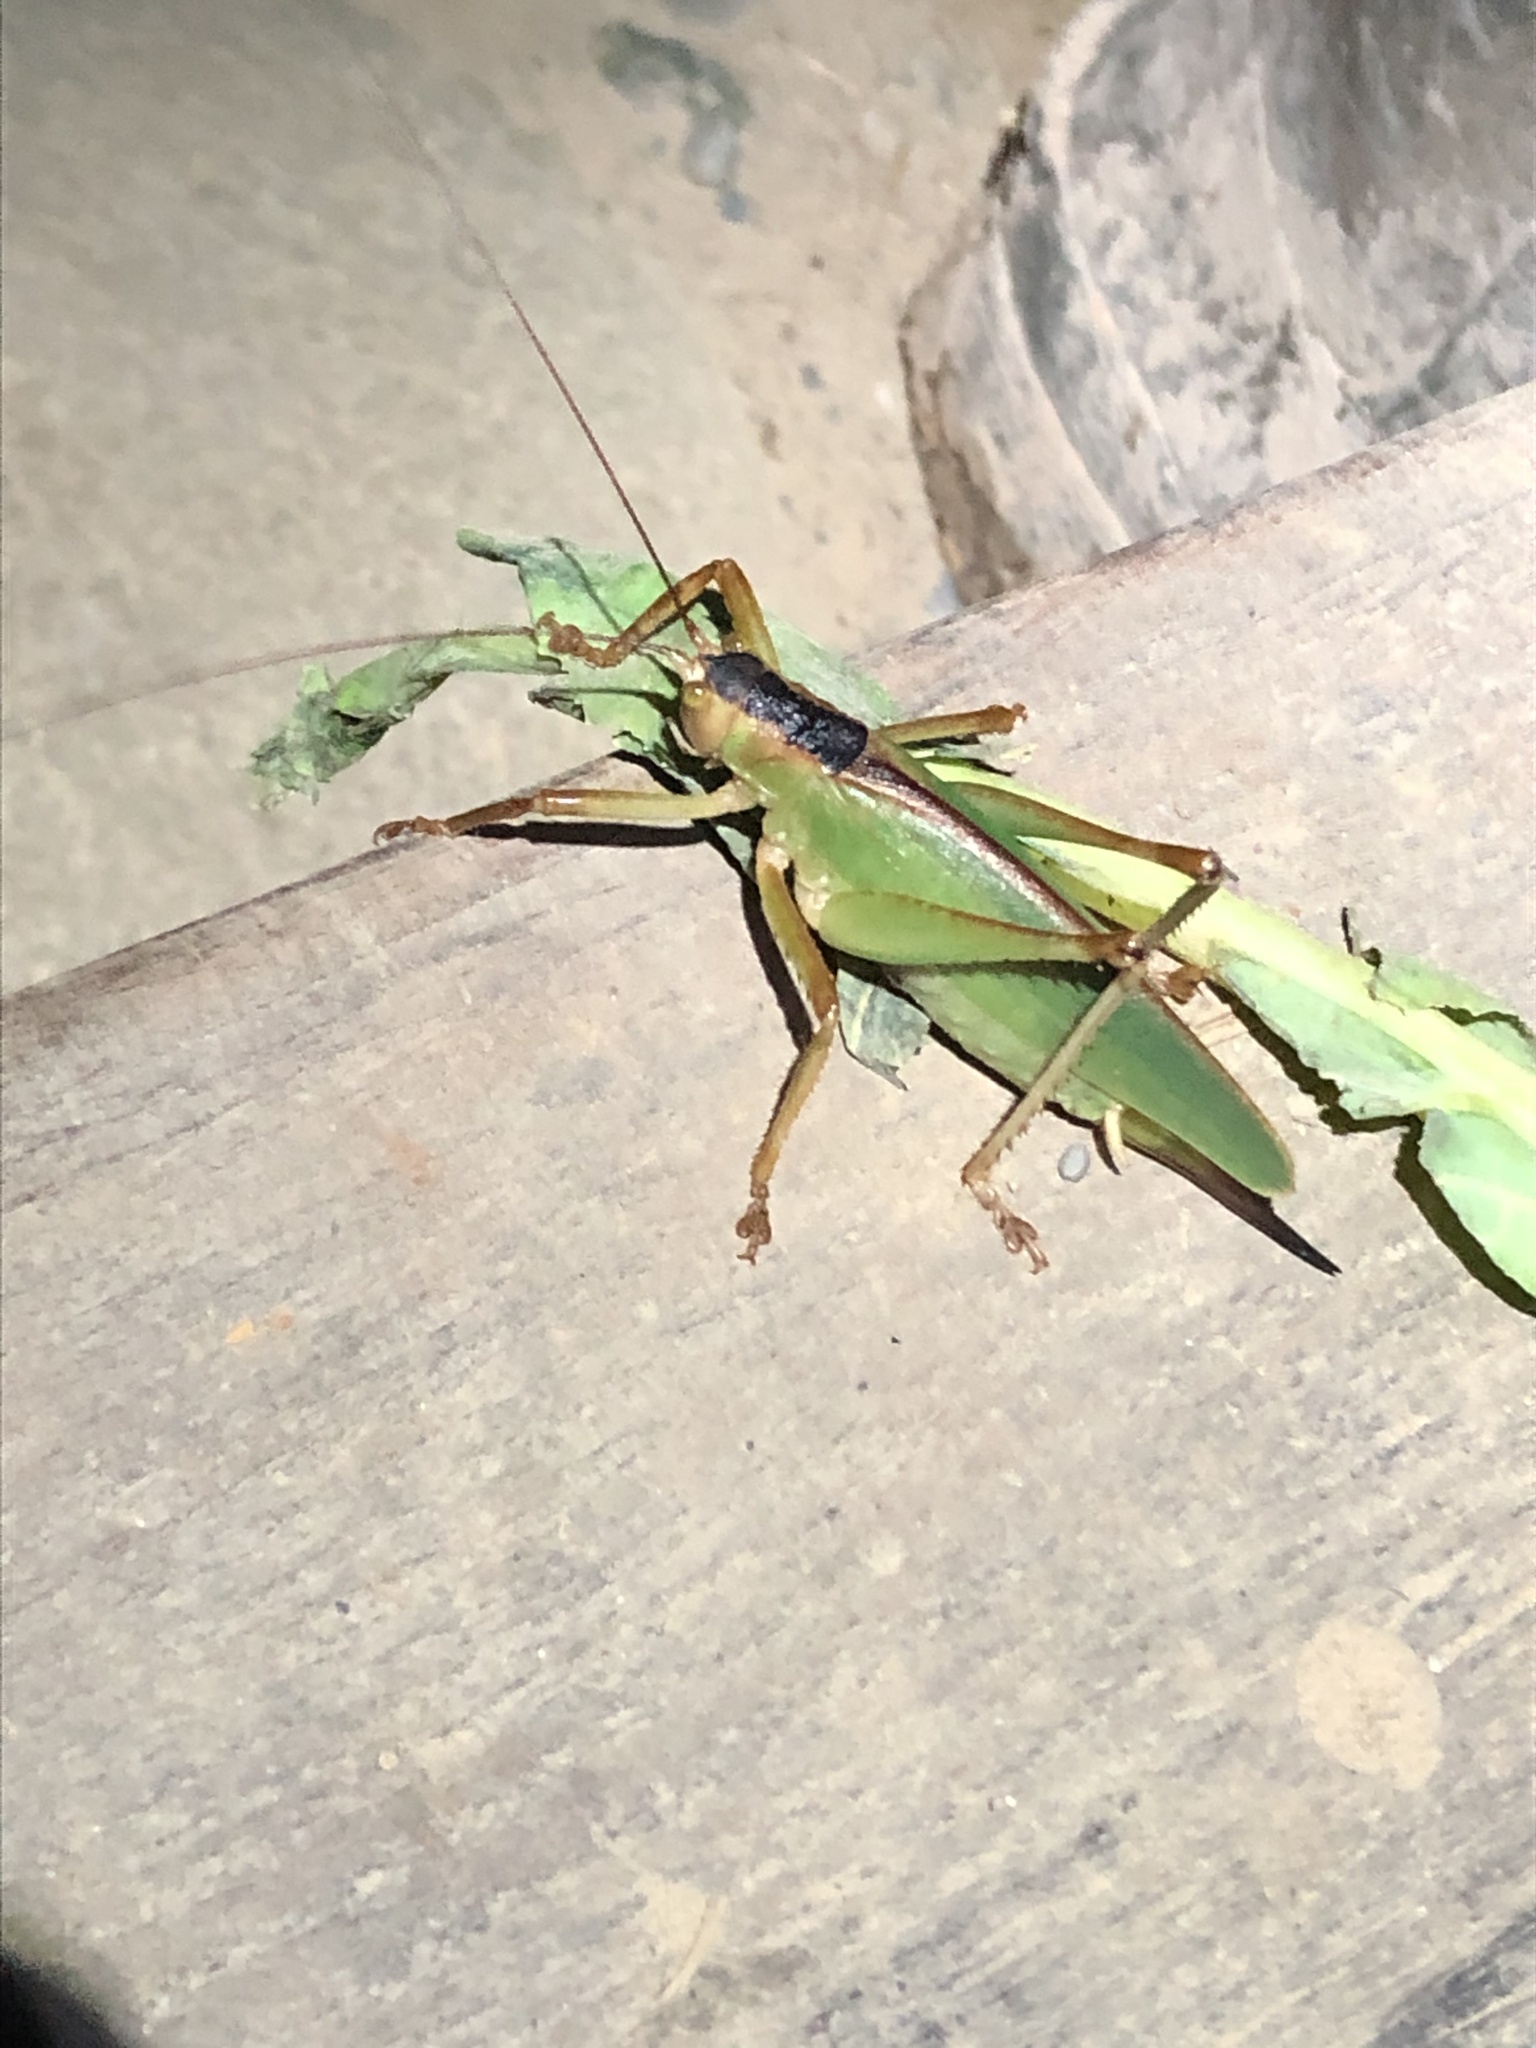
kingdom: Animalia
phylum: Arthropoda
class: Insecta
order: Orthoptera
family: Tettigoniidae
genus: Chrysobliastes
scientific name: Chrysobliastes olivaceus
